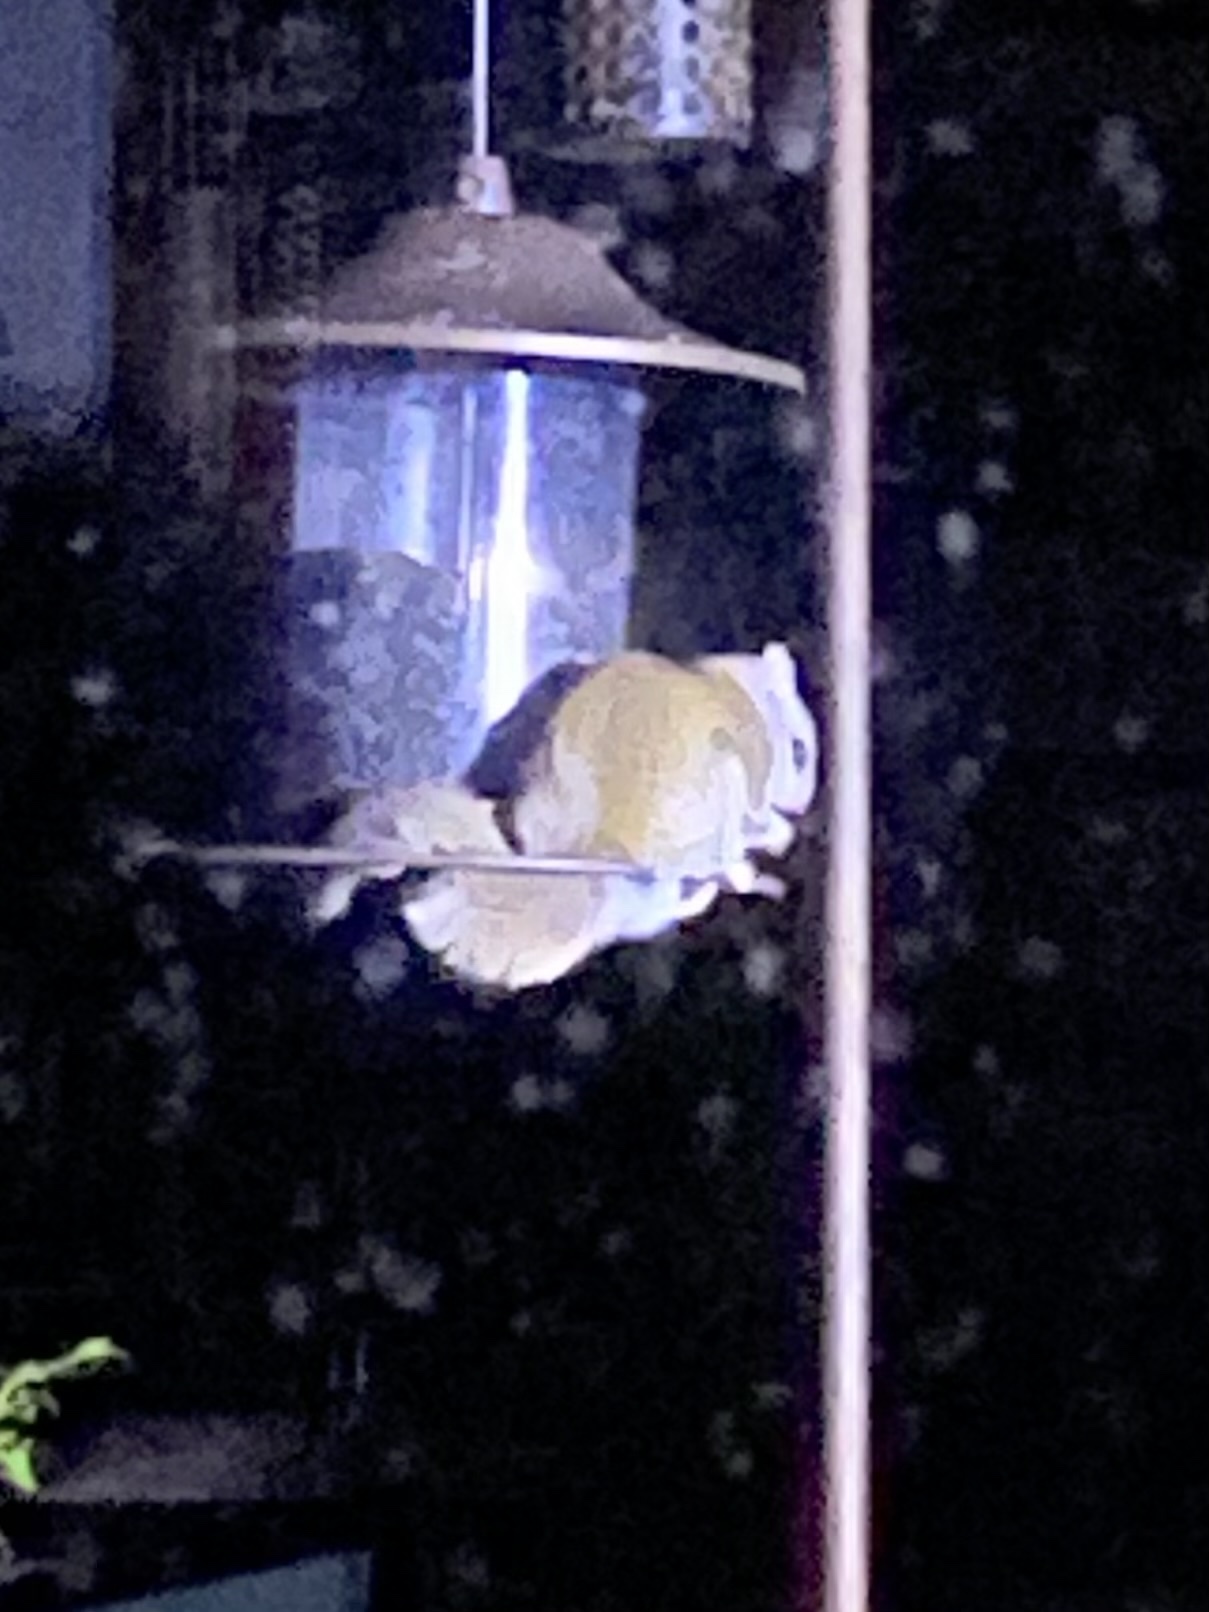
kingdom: Animalia
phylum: Chordata
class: Mammalia
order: Rodentia
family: Sciuridae
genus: Glaucomys
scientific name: Glaucomys sabrinus
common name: Northern flying squirrel
